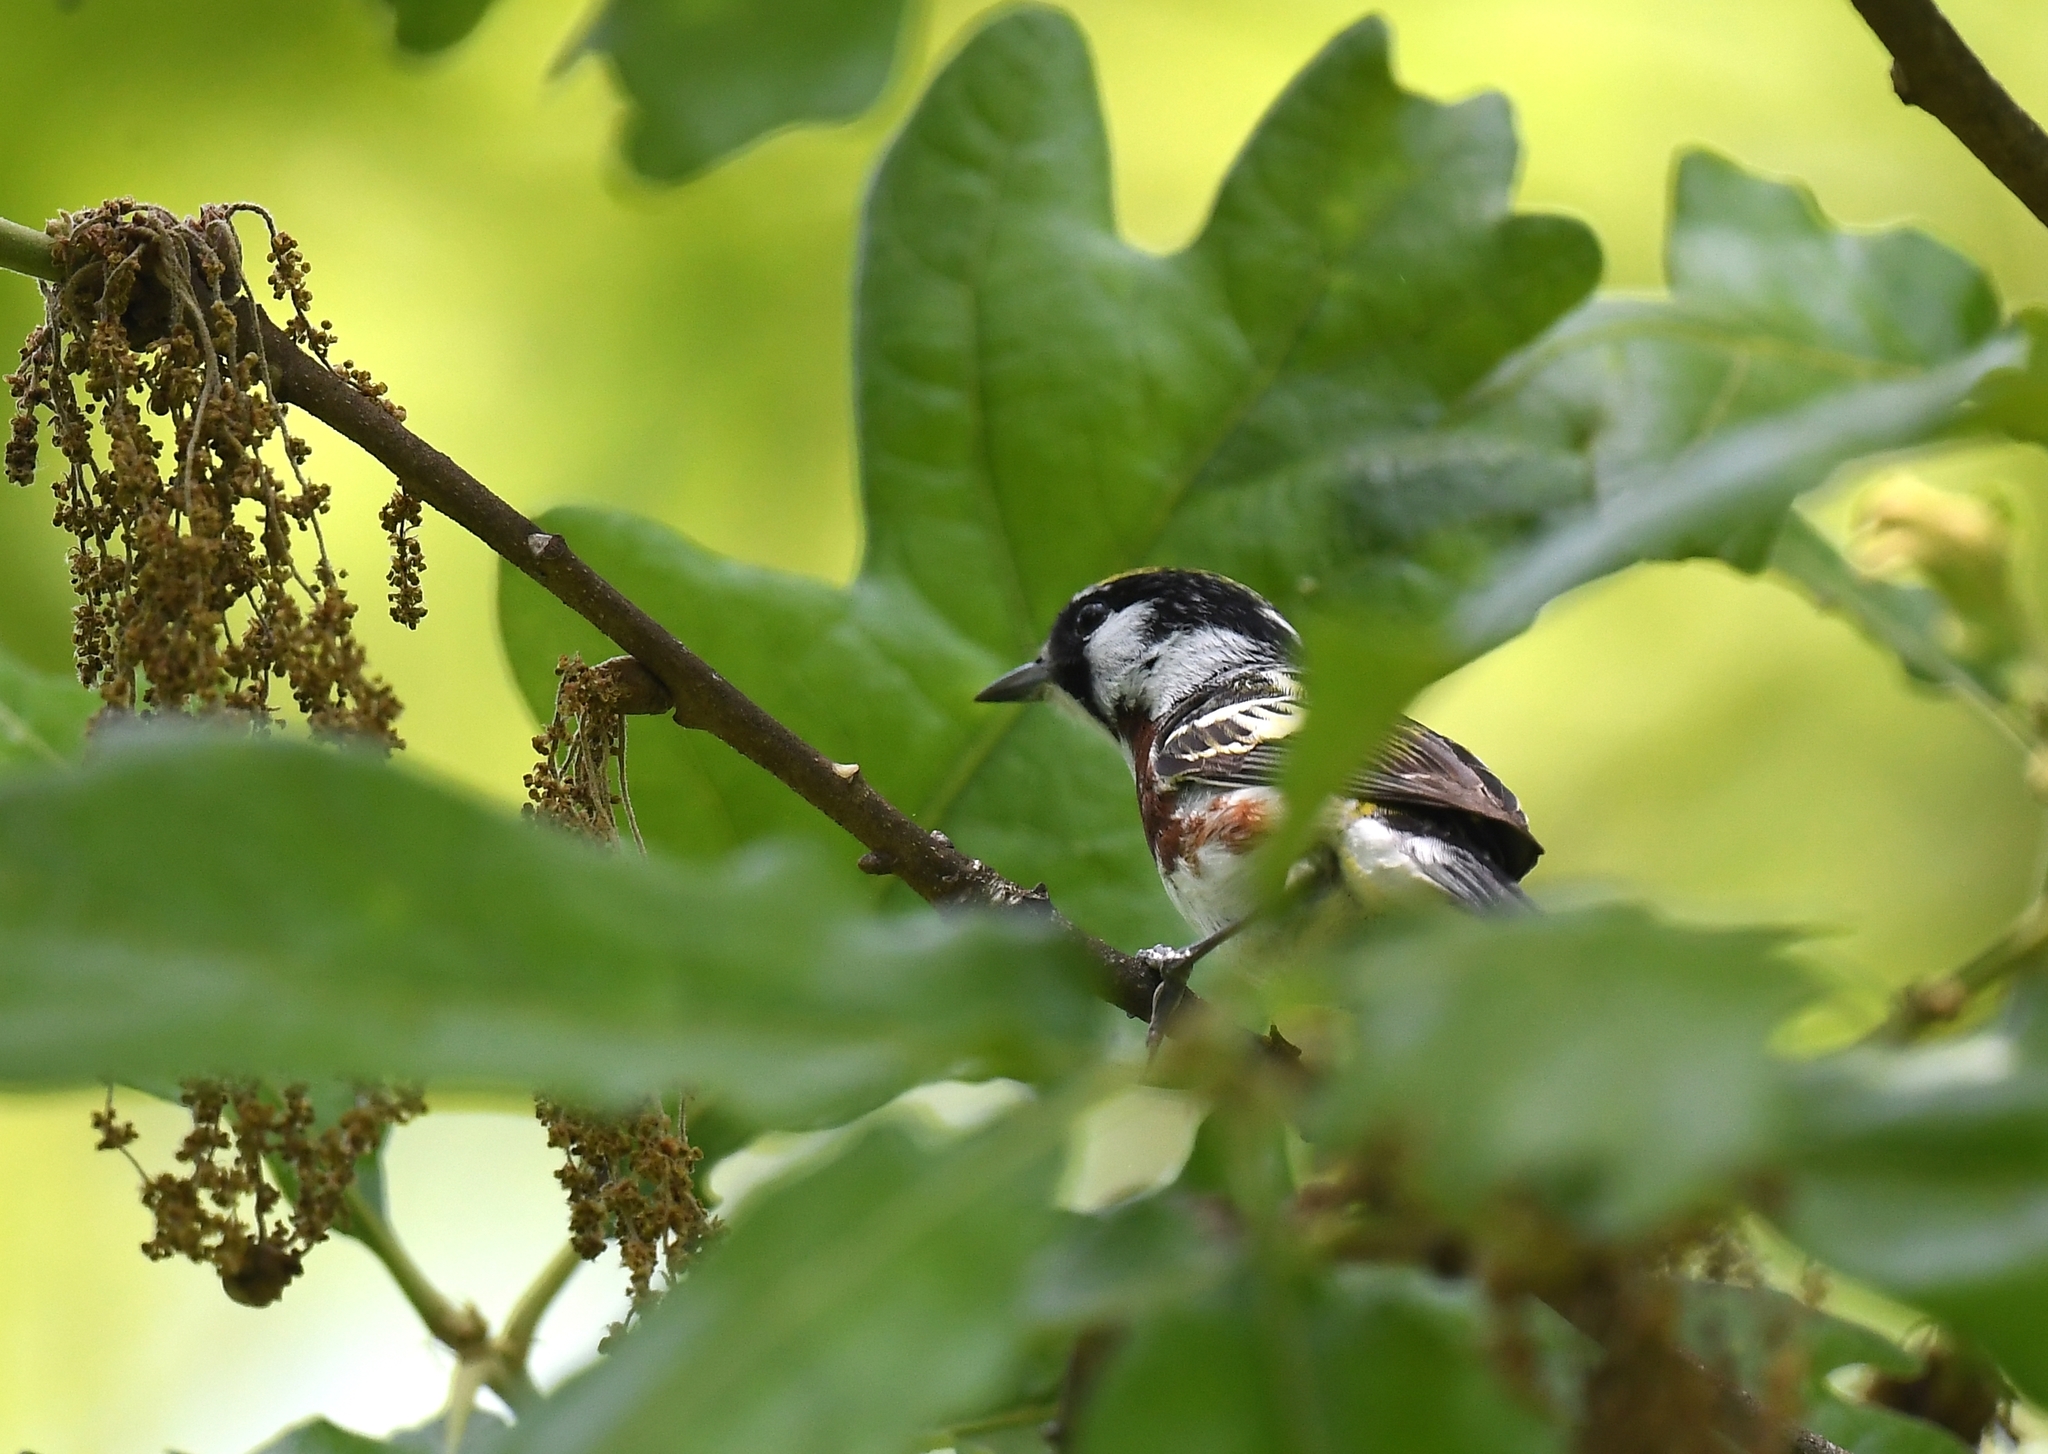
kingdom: Animalia
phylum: Chordata
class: Aves
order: Passeriformes
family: Parulidae
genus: Setophaga
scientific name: Setophaga pensylvanica
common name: Chestnut-sided warbler
